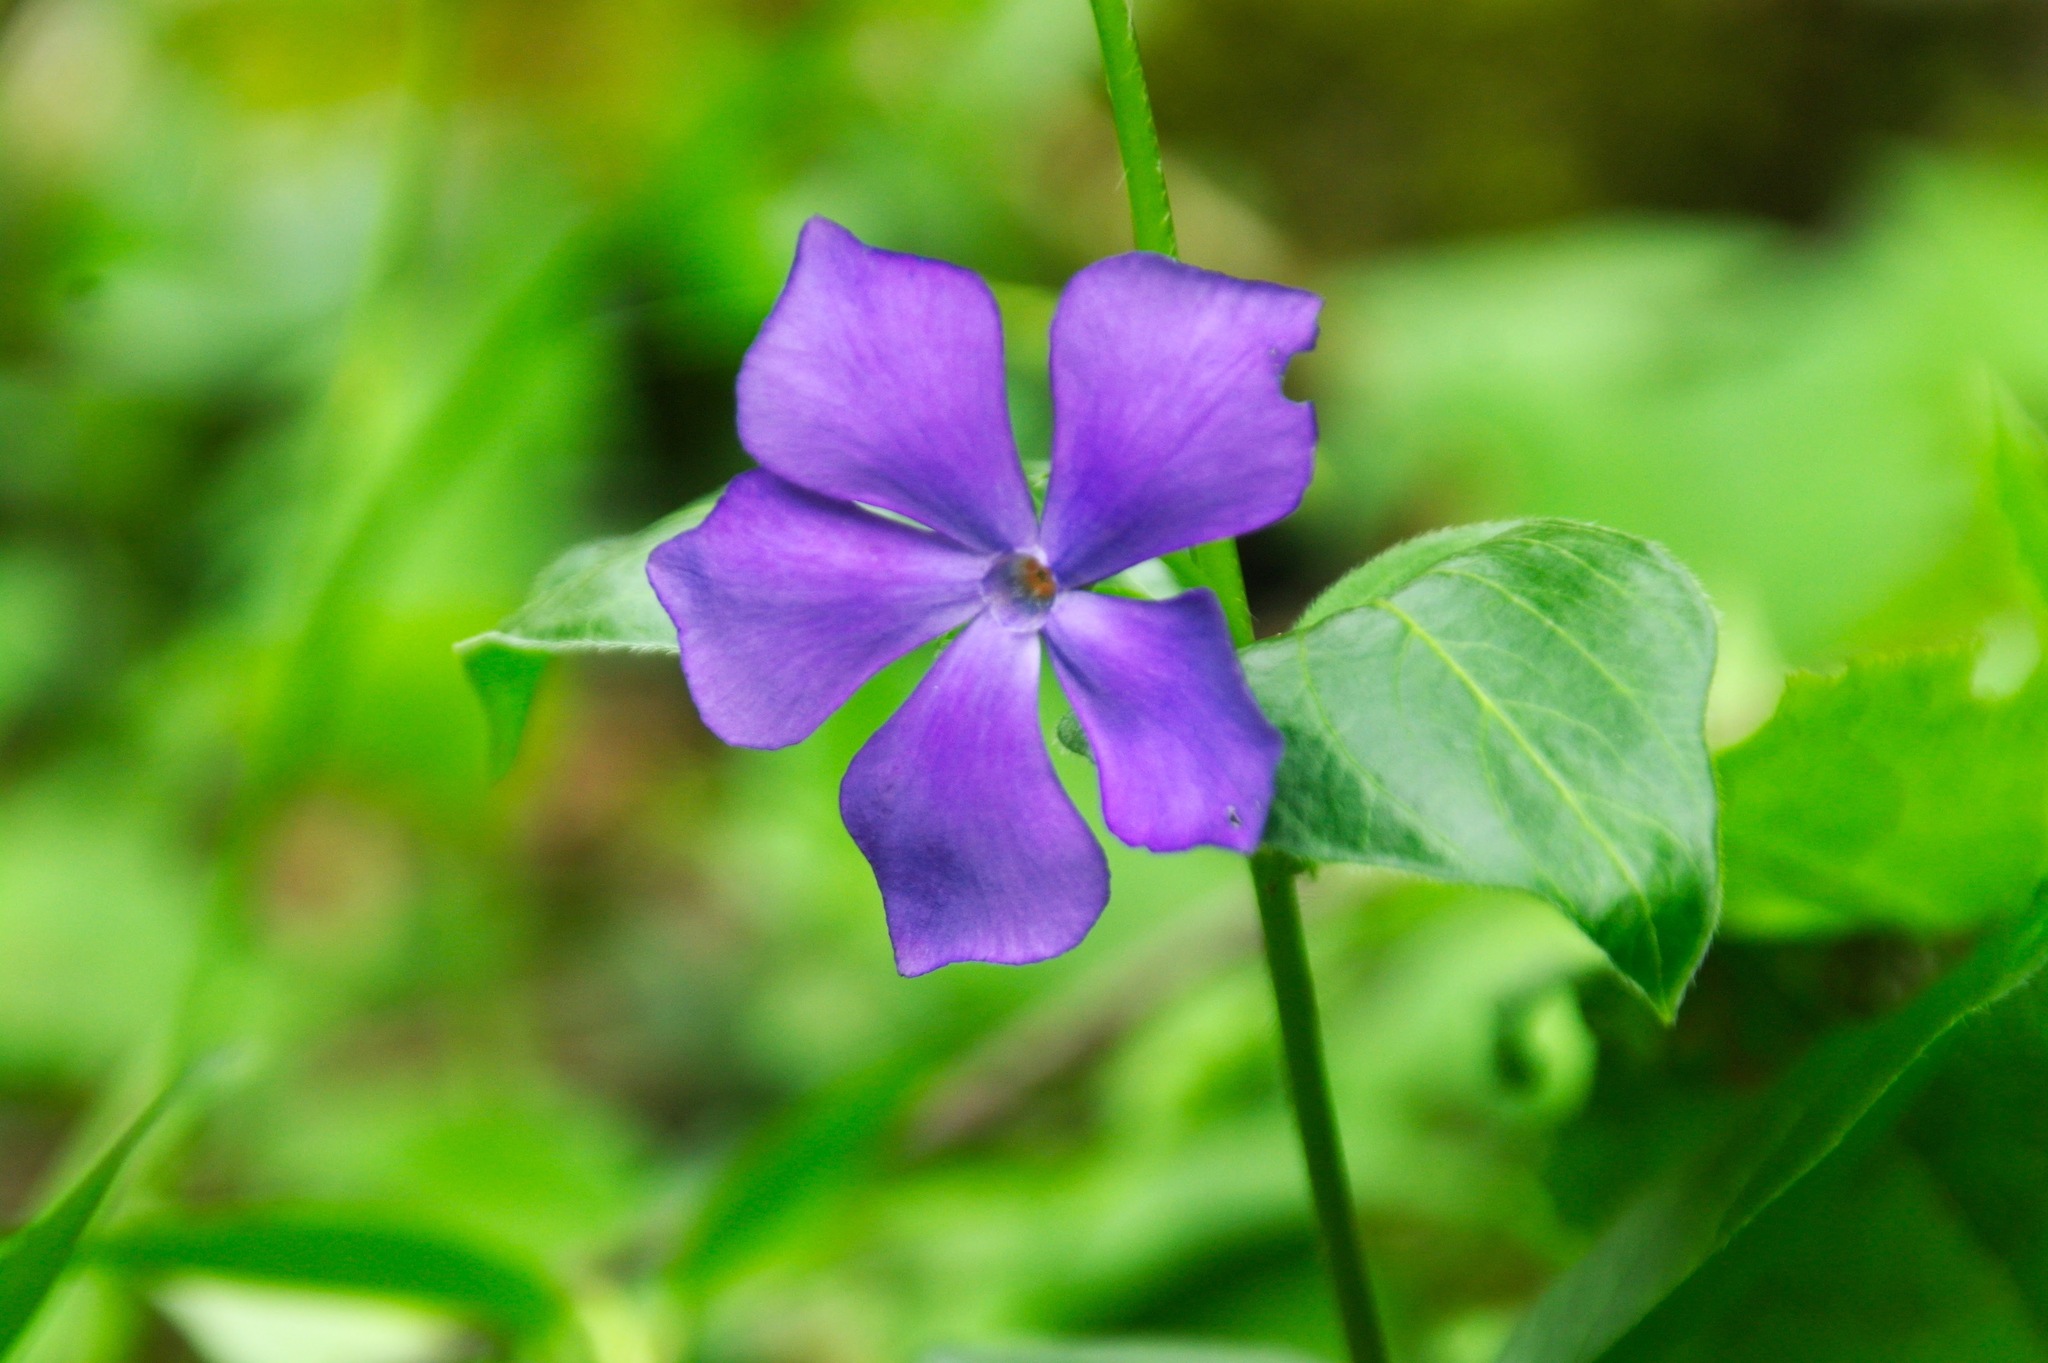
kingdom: Plantae
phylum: Tracheophyta
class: Magnoliopsida
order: Gentianales
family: Apocynaceae
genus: Vinca
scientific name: Vinca major
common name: Greater periwinkle
